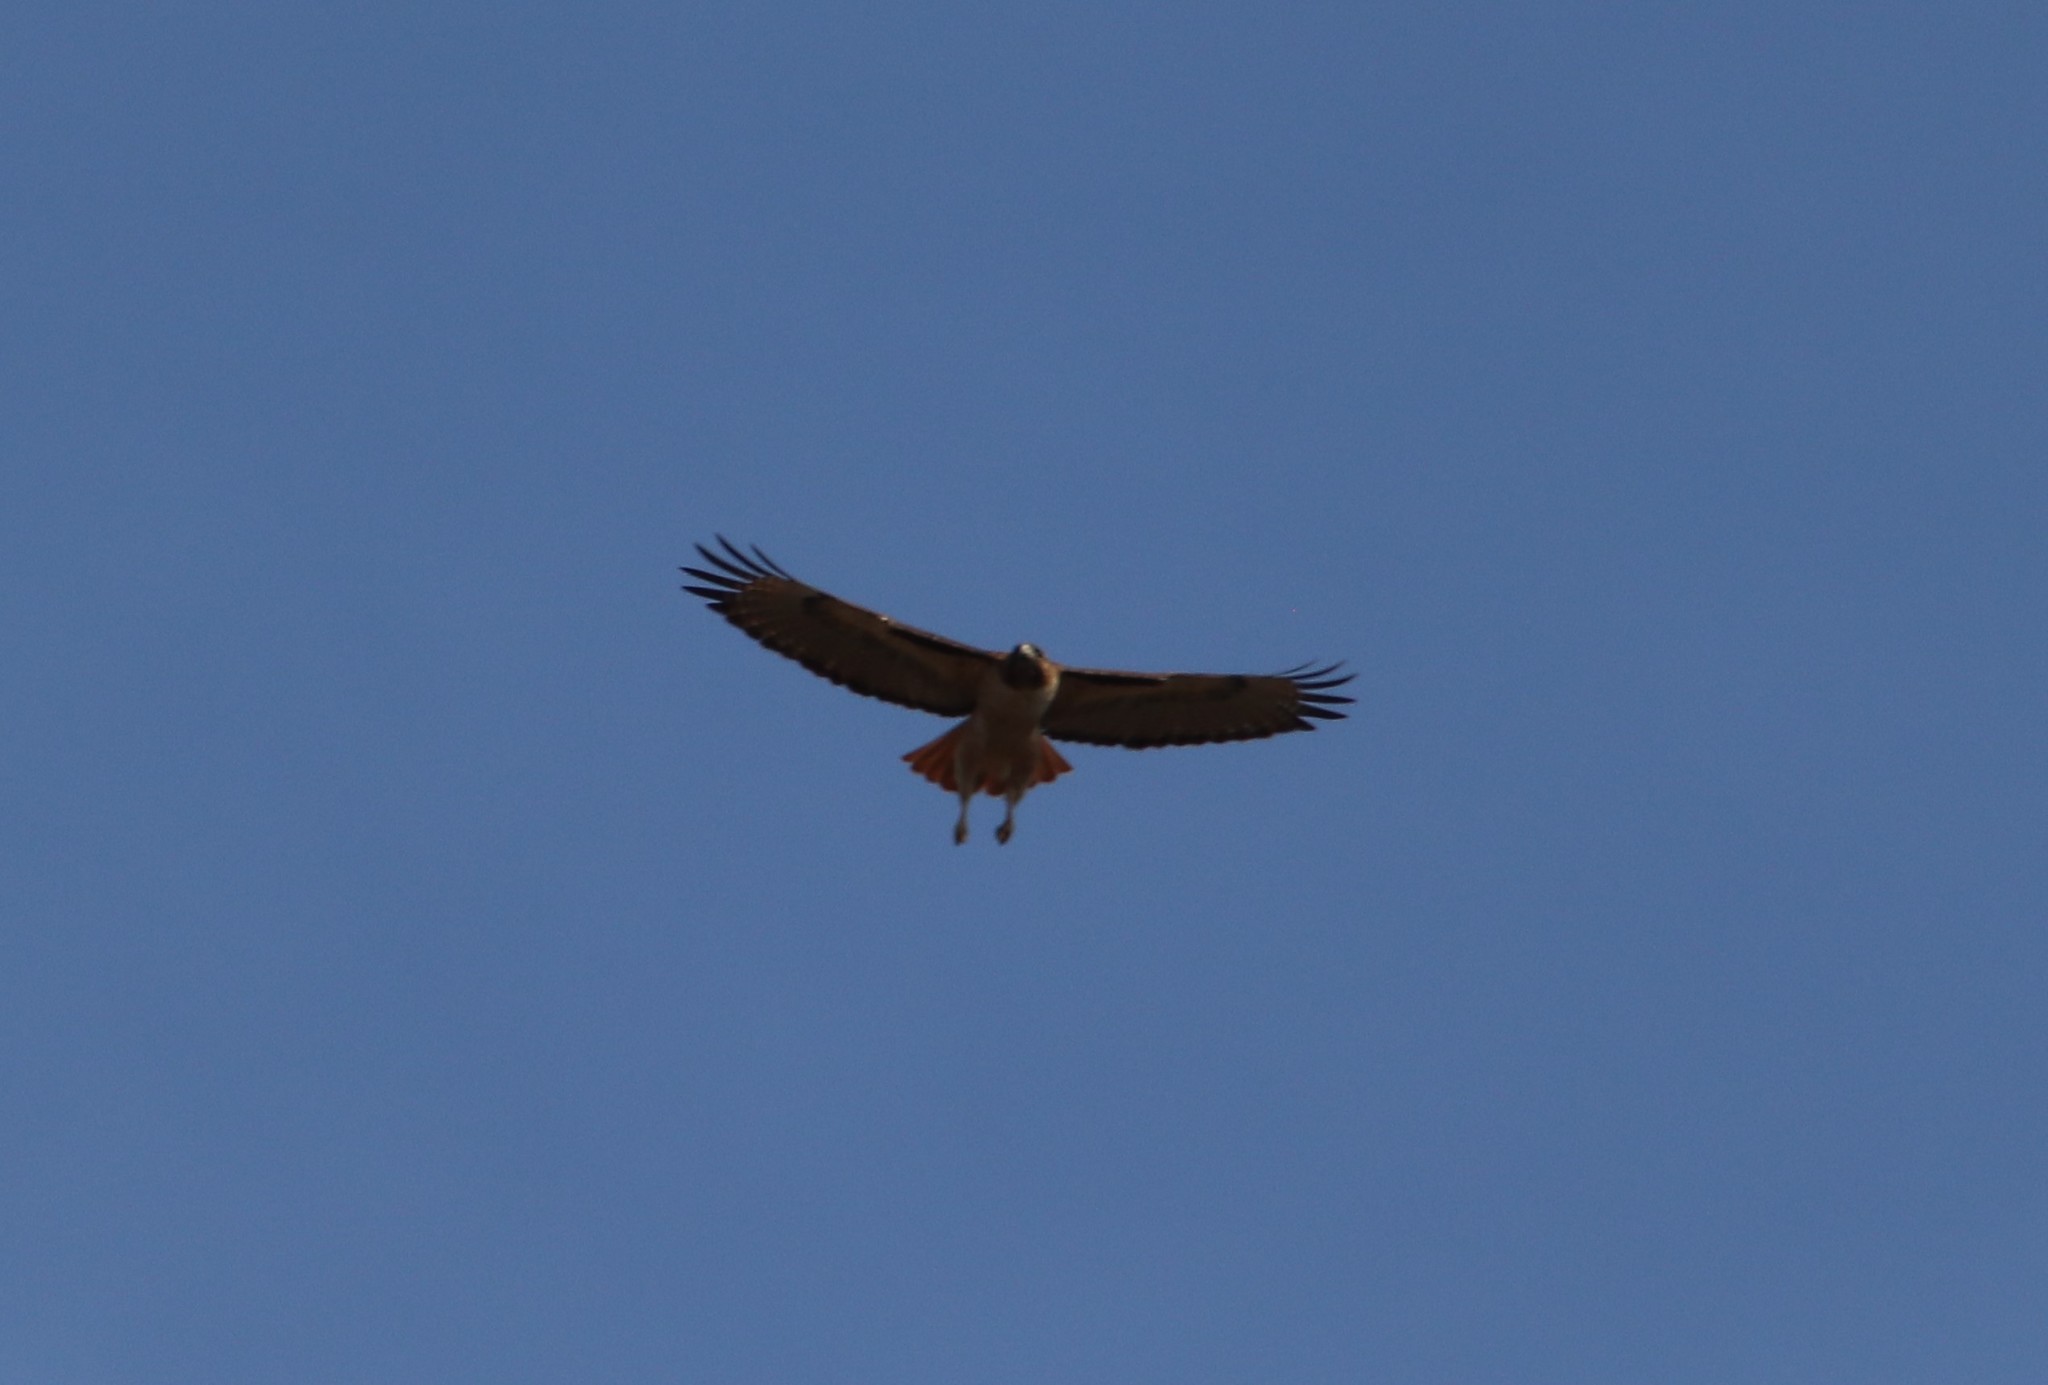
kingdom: Animalia
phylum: Chordata
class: Aves
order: Accipitriformes
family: Accipitridae
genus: Buteo
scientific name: Buteo jamaicensis
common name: Red-tailed hawk
